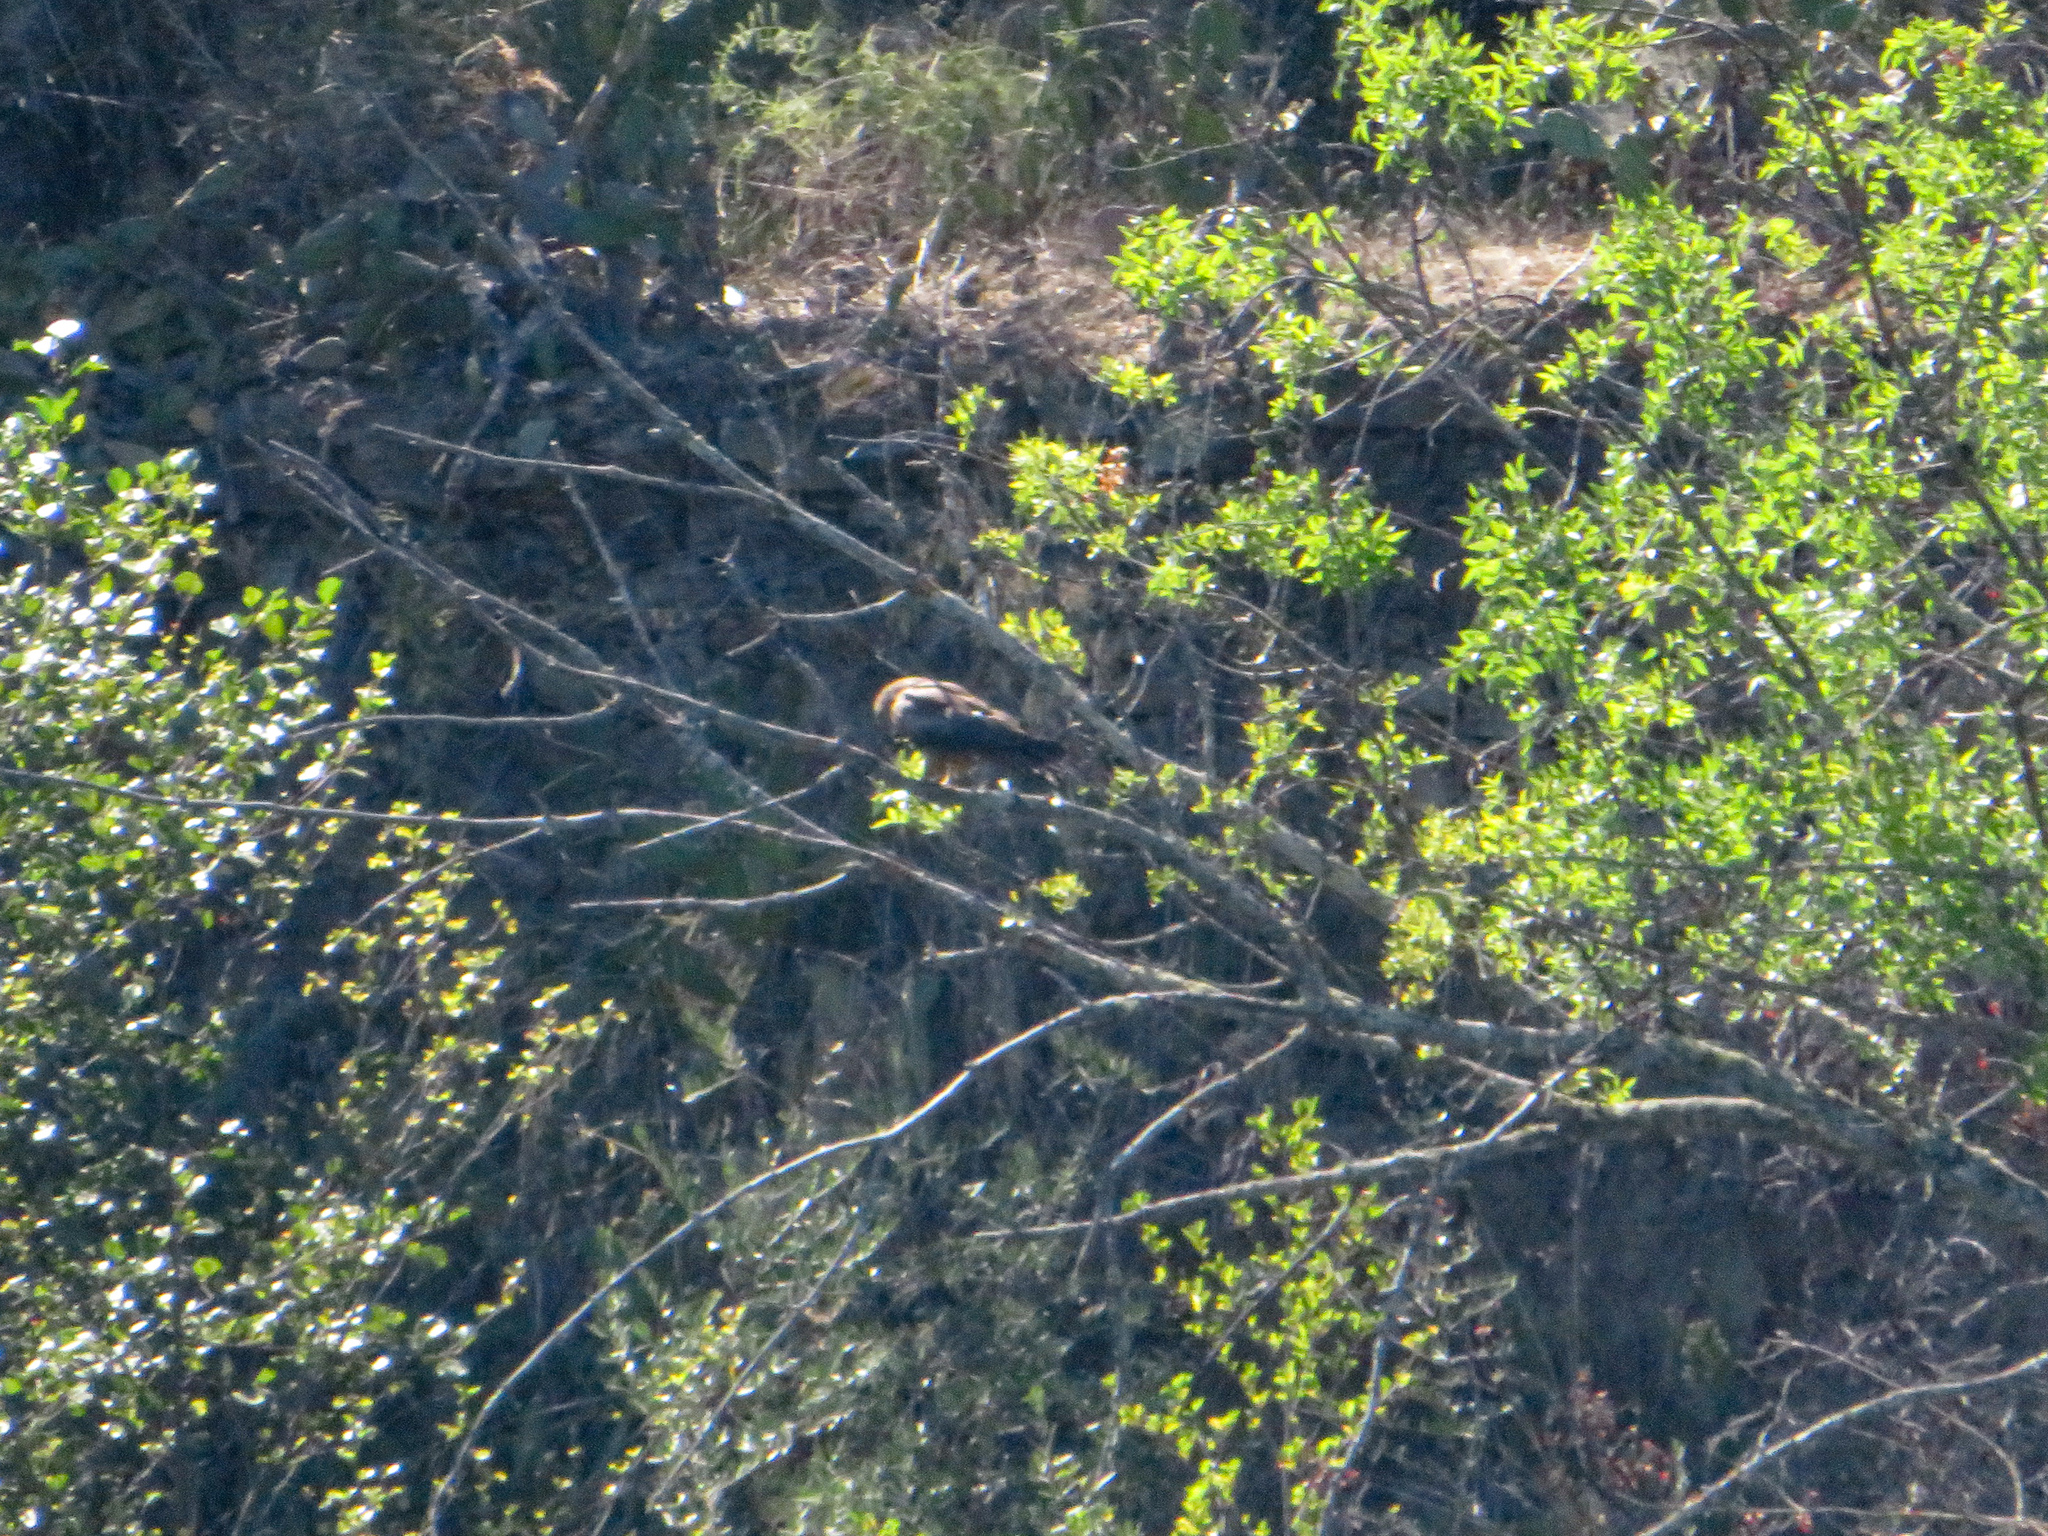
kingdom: Animalia
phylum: Chordata
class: Aves
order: Accipitriformes
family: Accipitridae
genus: Milvus
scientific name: Milvus migrans
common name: Black kite
